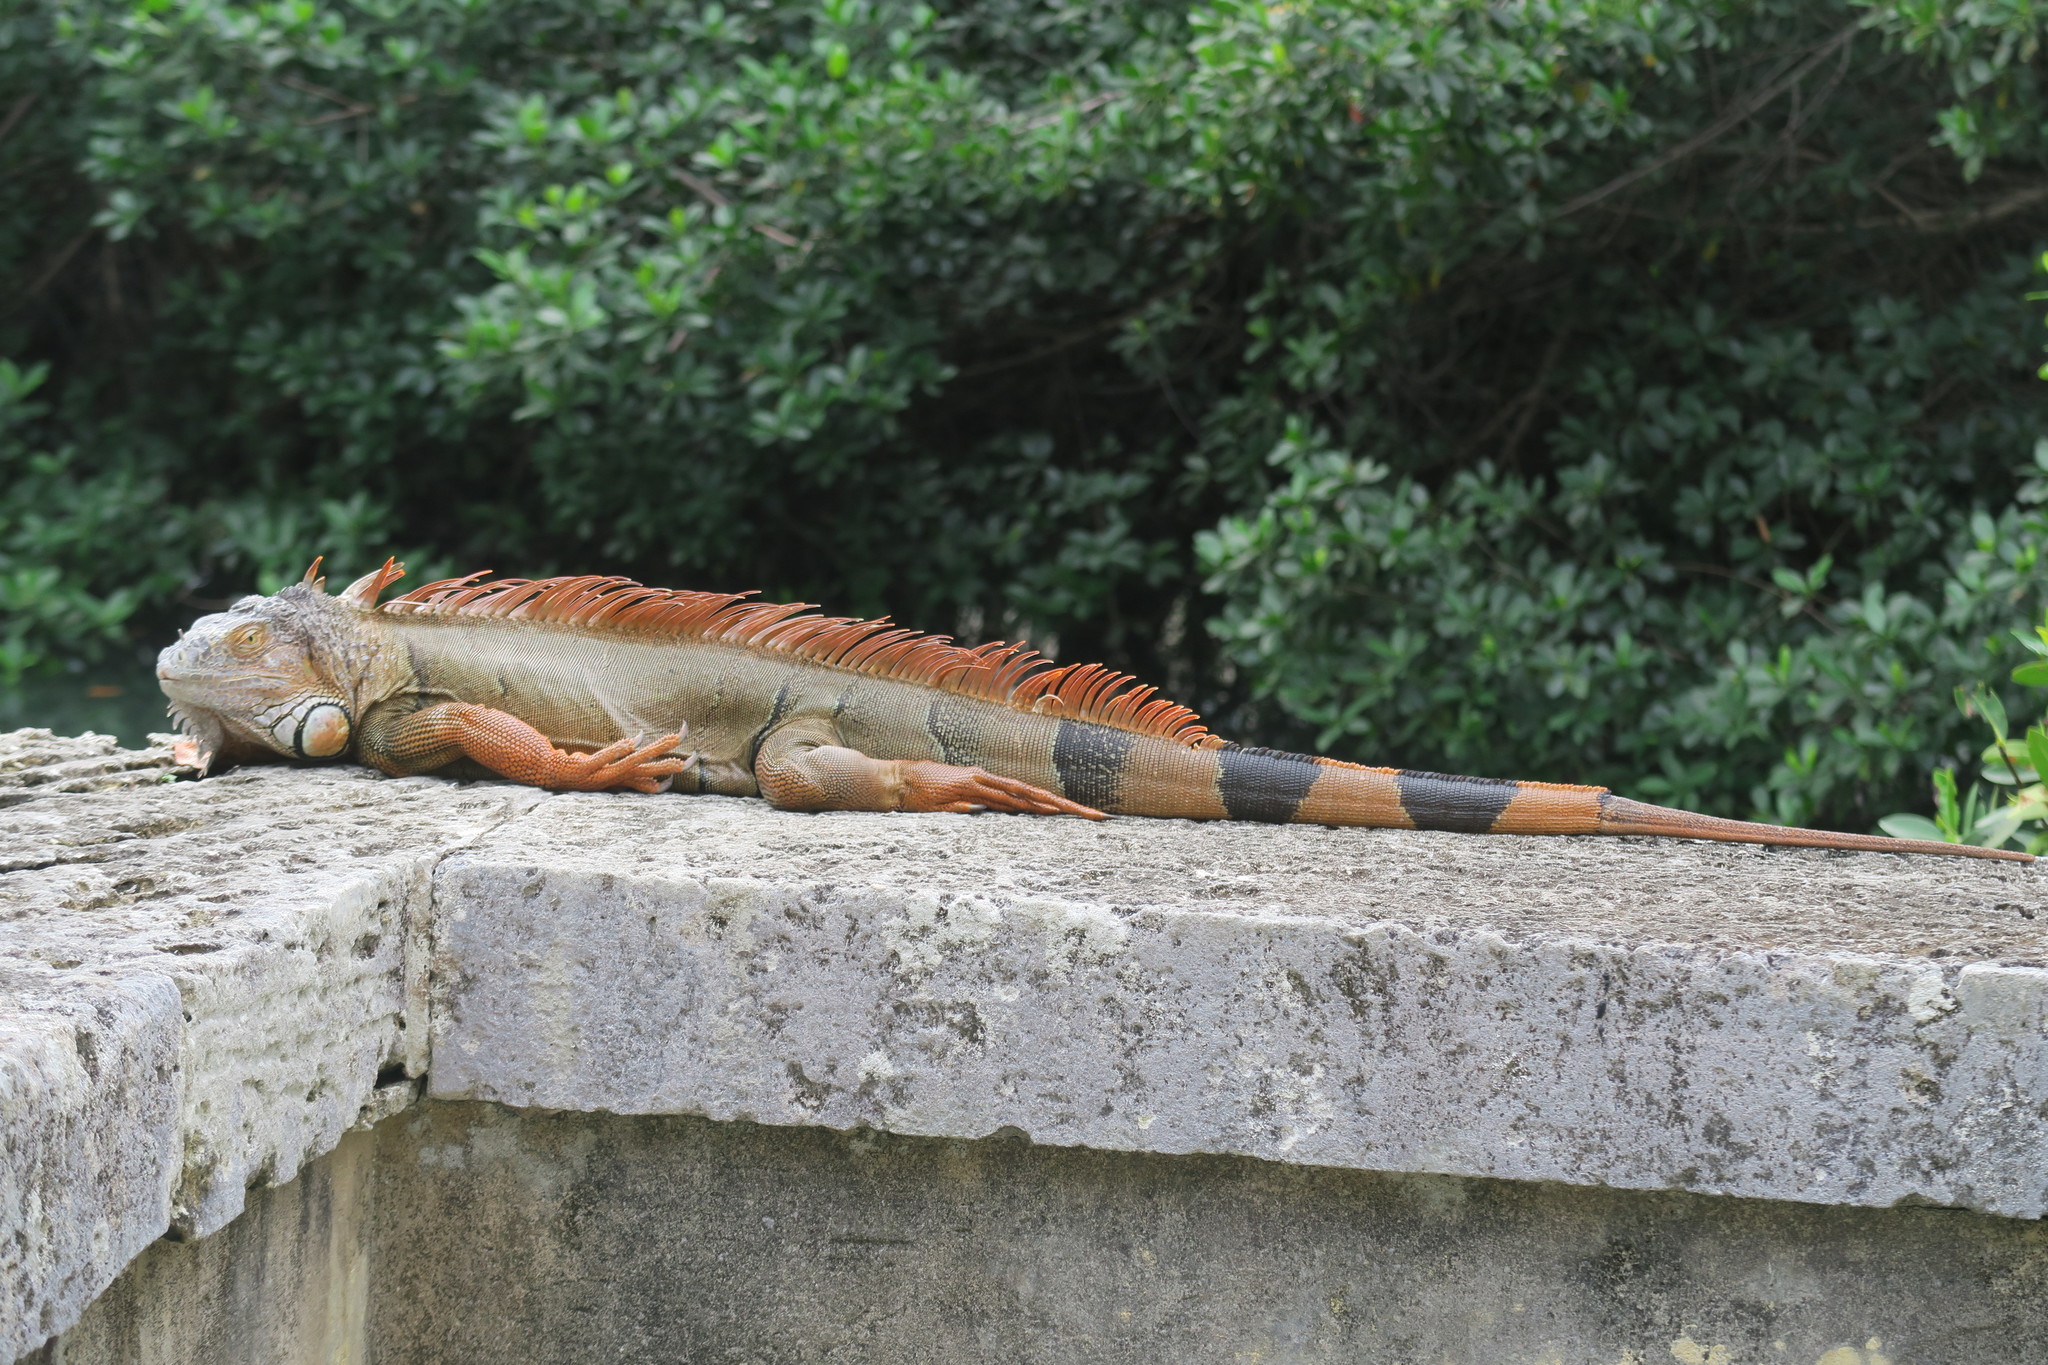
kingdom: Animalia
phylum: Chordata
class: Squamata
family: Iguanidae
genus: Iguana
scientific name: Iguana iguana
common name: Green iguana
